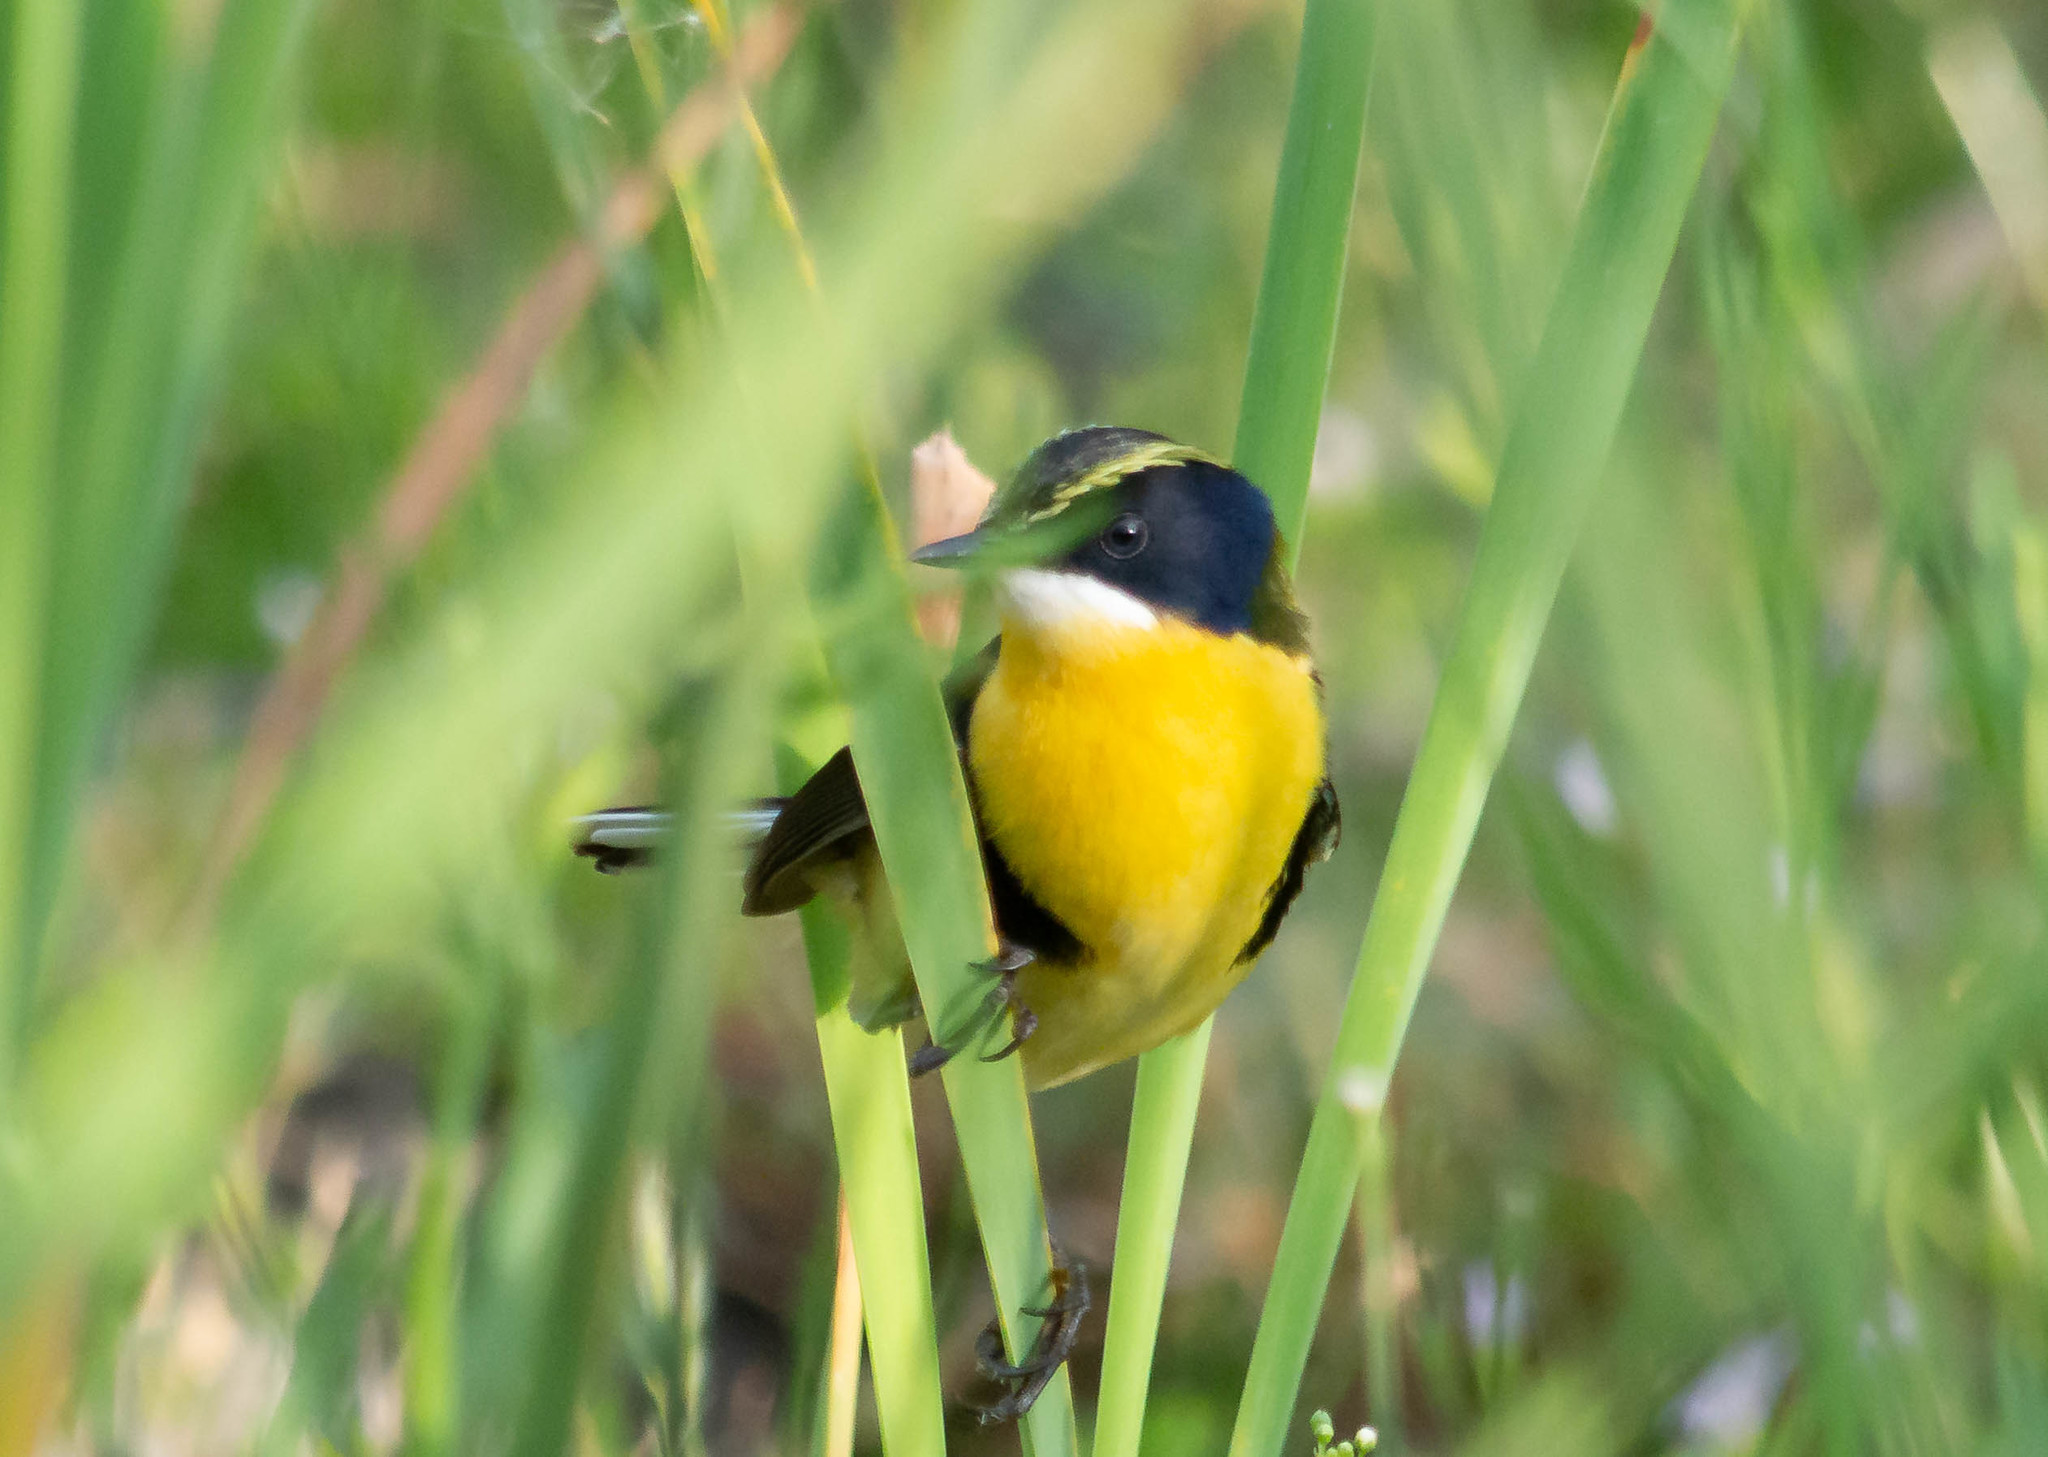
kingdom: Animalia
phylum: Chordata
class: Aves
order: Passeriformes
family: Tyrannidae
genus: Tachuris
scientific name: Tachuris rubrigastra
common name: Many-colored rush tyrant
